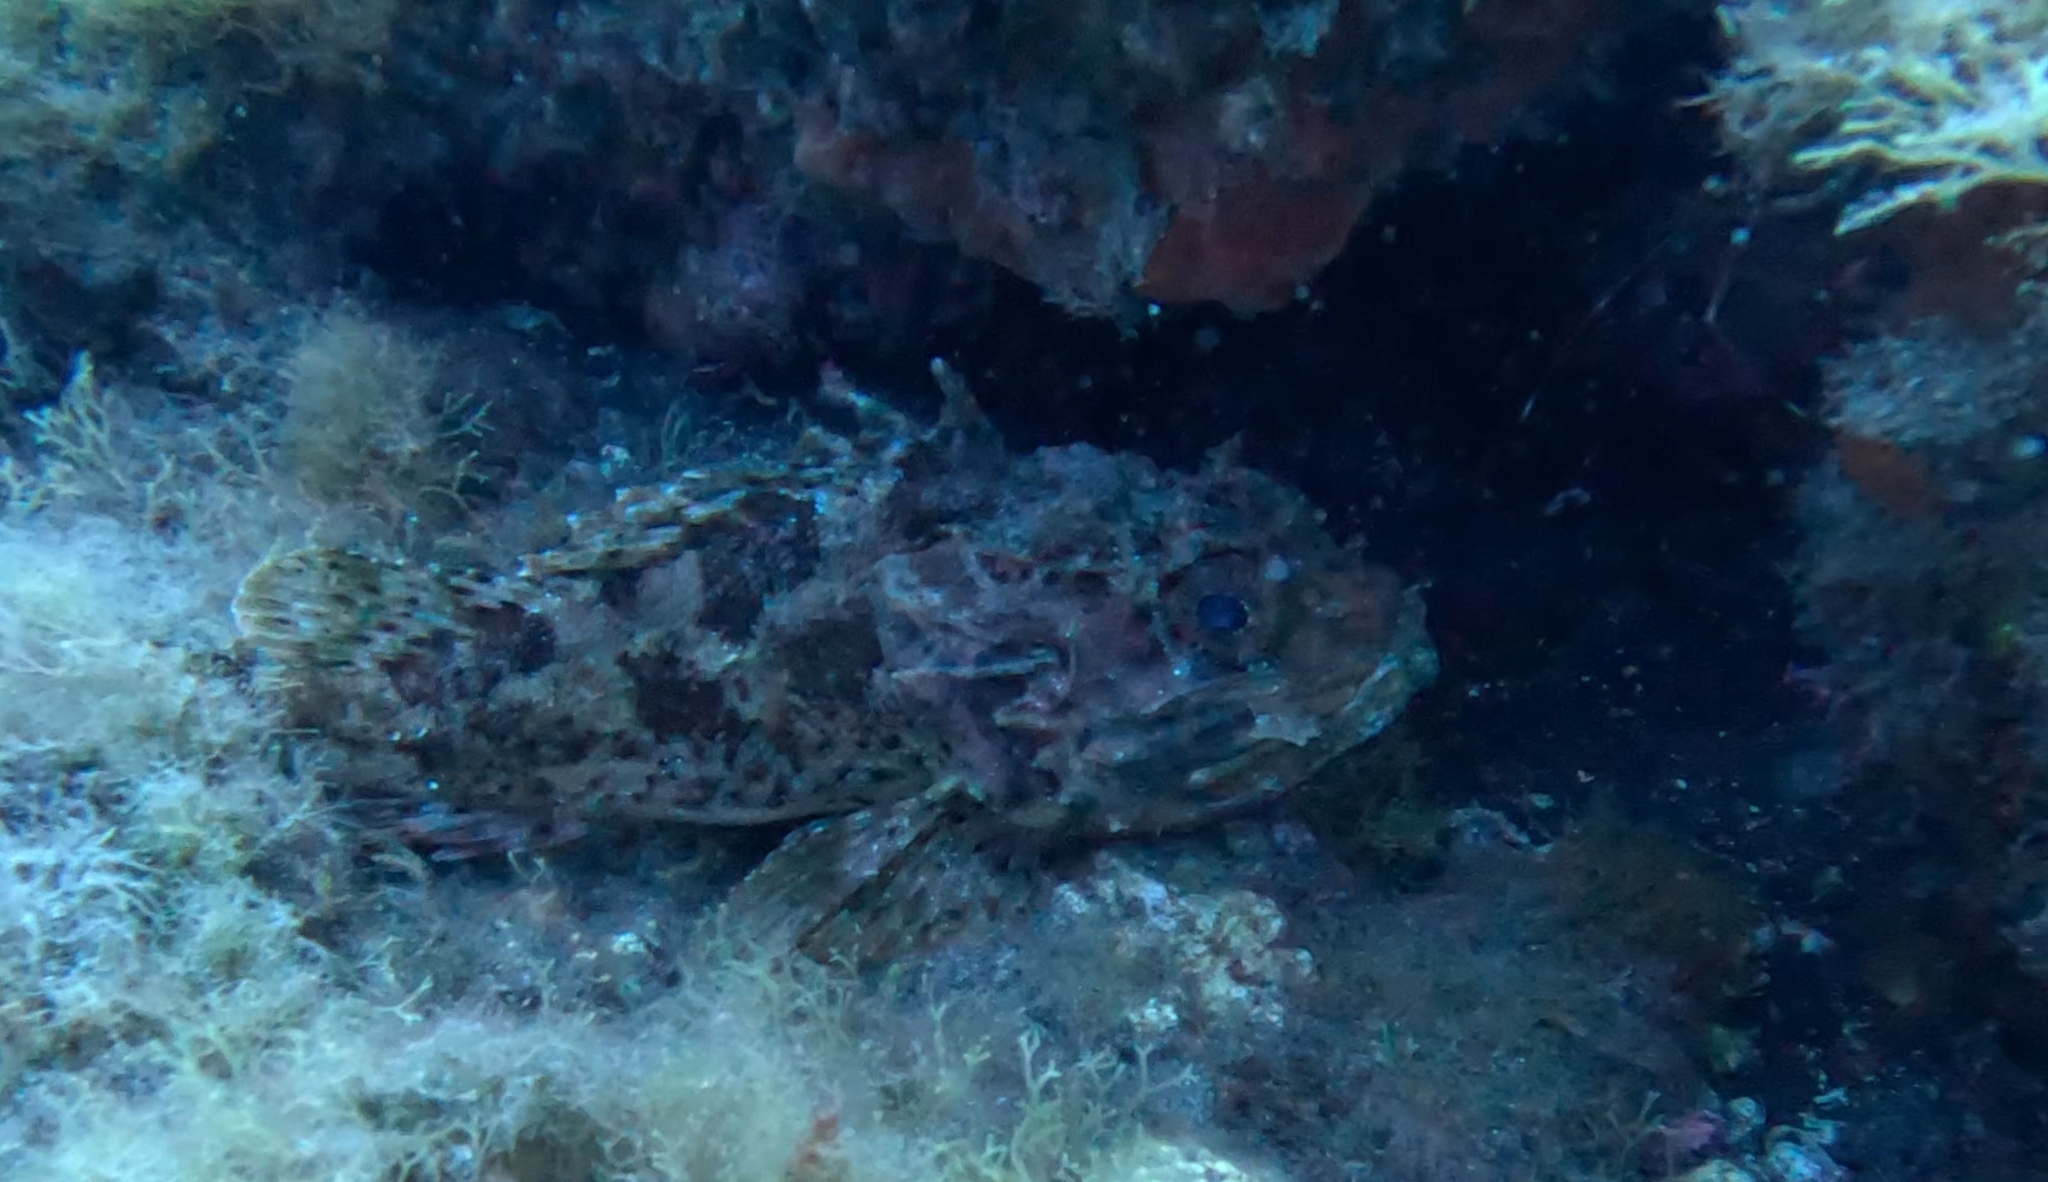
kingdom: Animalia
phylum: Chordata
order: Scorpaeniformes
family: Scorpaenidae
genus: Scorpaena
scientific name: Scorpaena porcus
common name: Black scorpionfish
